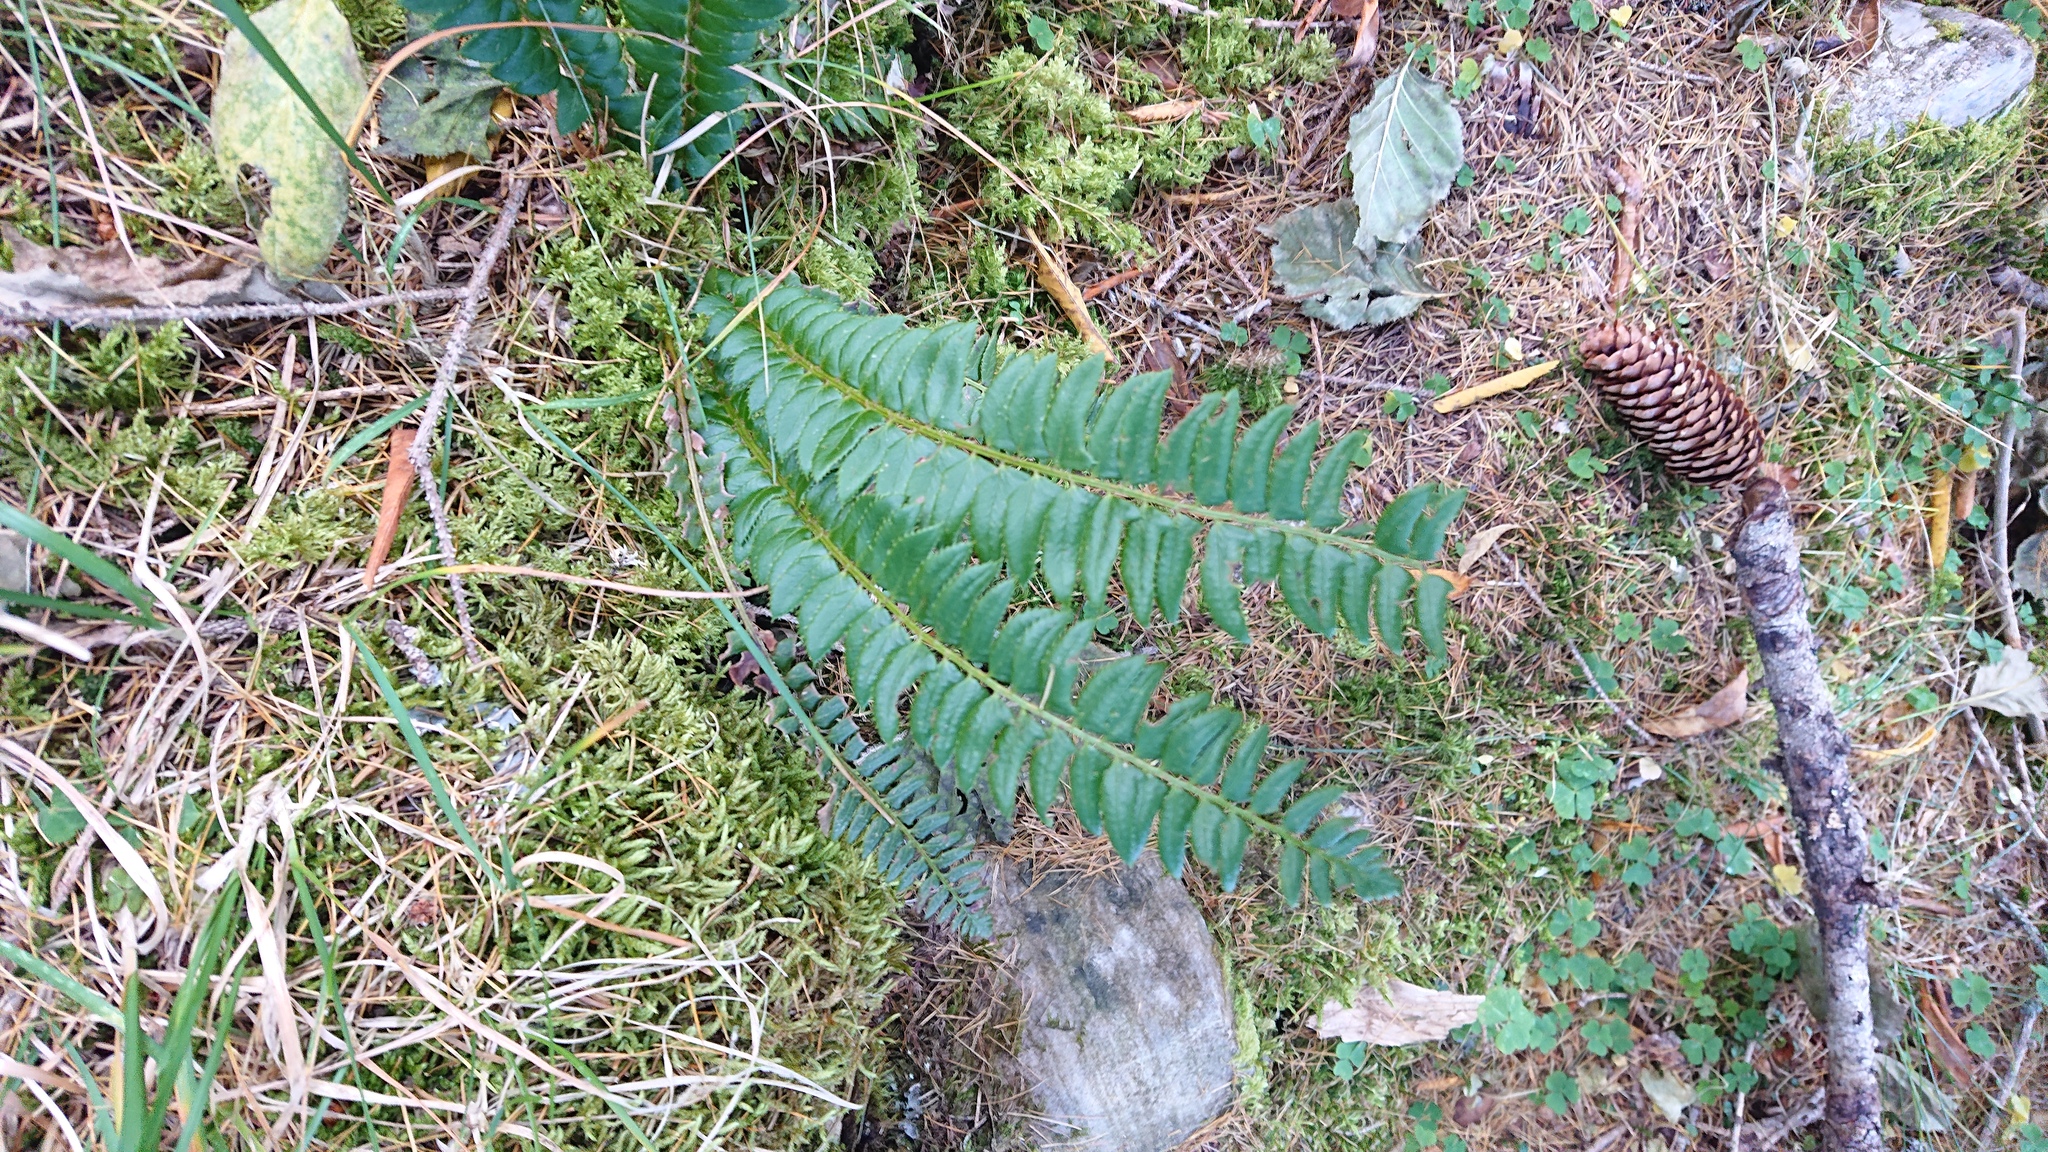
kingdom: Plantae
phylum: Tracheophyta
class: Polypodiopsida
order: Polypodiales
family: Dryopteridaceae
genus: Polystichum
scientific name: Polystichum lonchitis
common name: Holly fern
